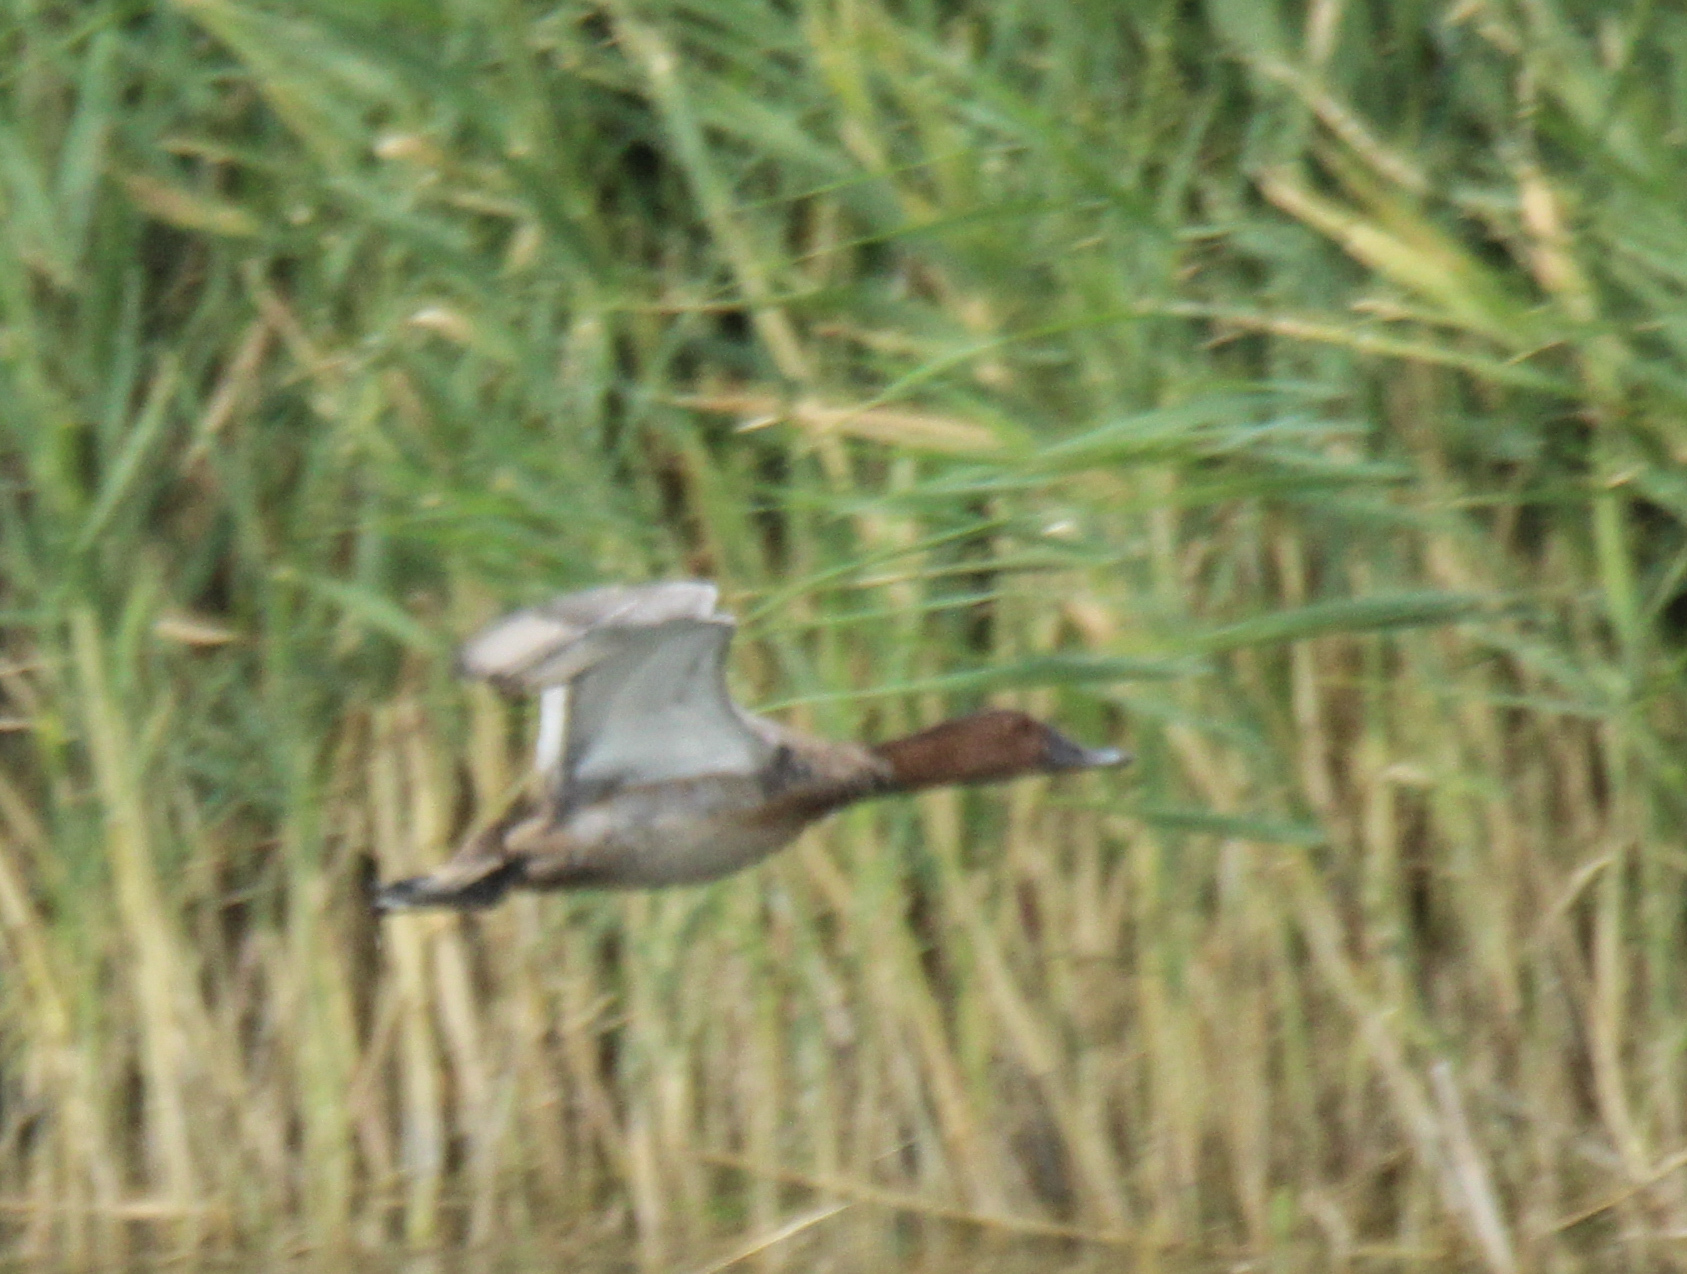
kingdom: Animalia
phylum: Chordata
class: Aves
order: Anseriformes
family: Anatidae
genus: Aythya
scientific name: Aythya ferina
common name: Common pochard
